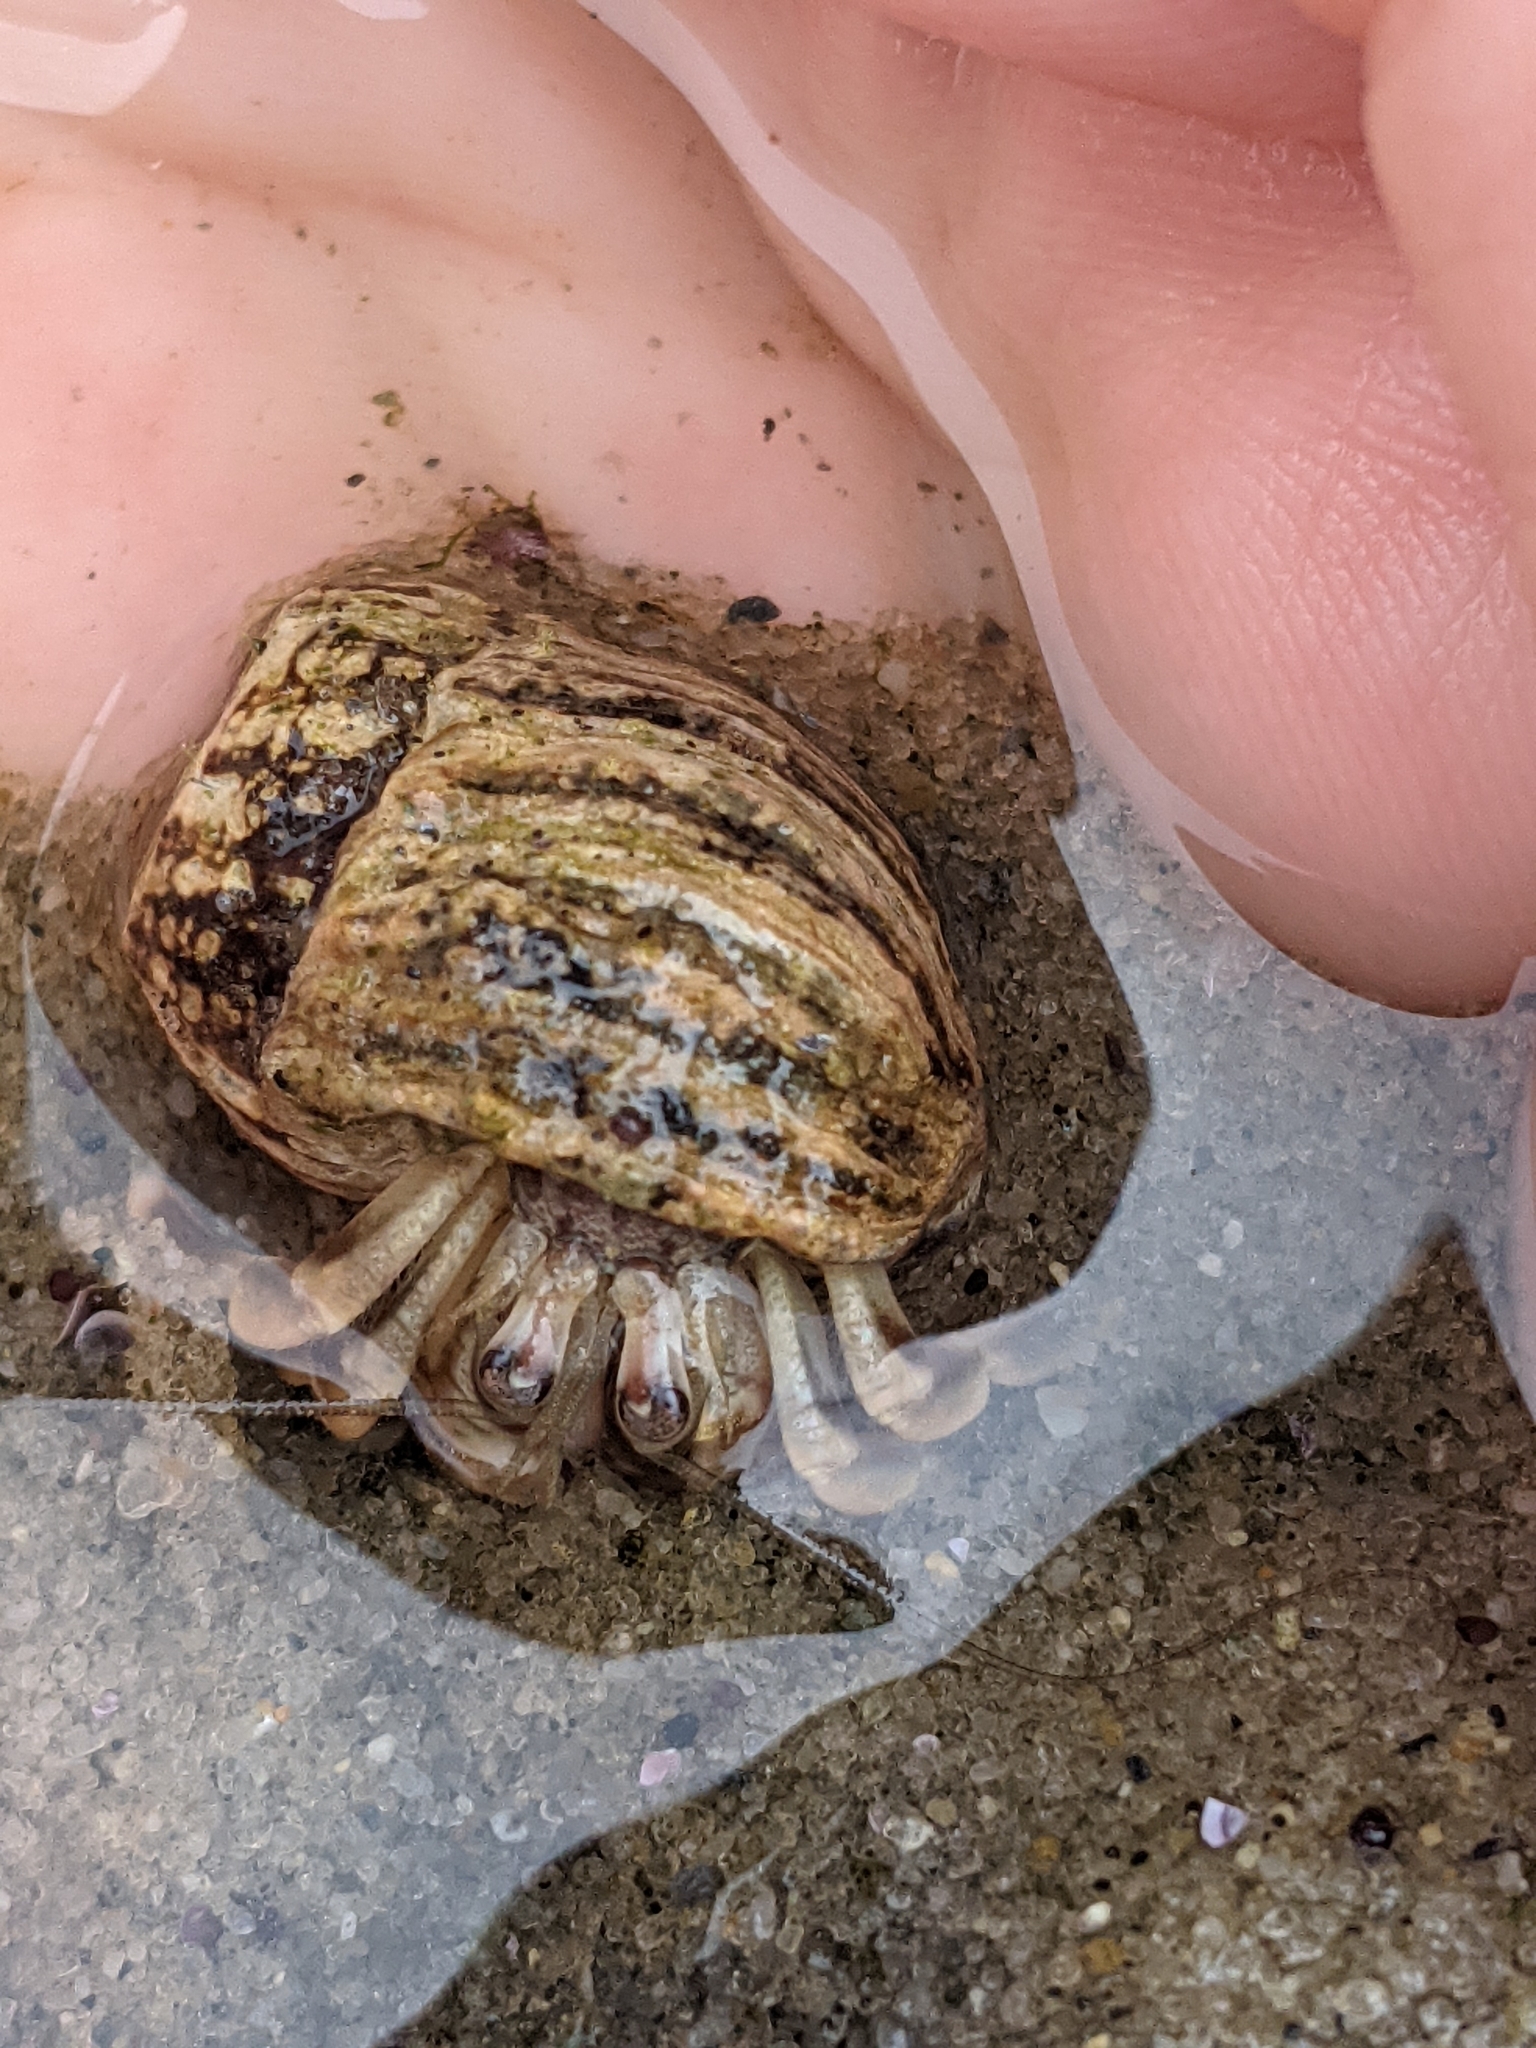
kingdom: Animalia
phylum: Arthropoda
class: Malacostraca
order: Decapoda
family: Paguridae
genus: Pagurus
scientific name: Pagurus longicarpus
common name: Long-armed hermit crab
